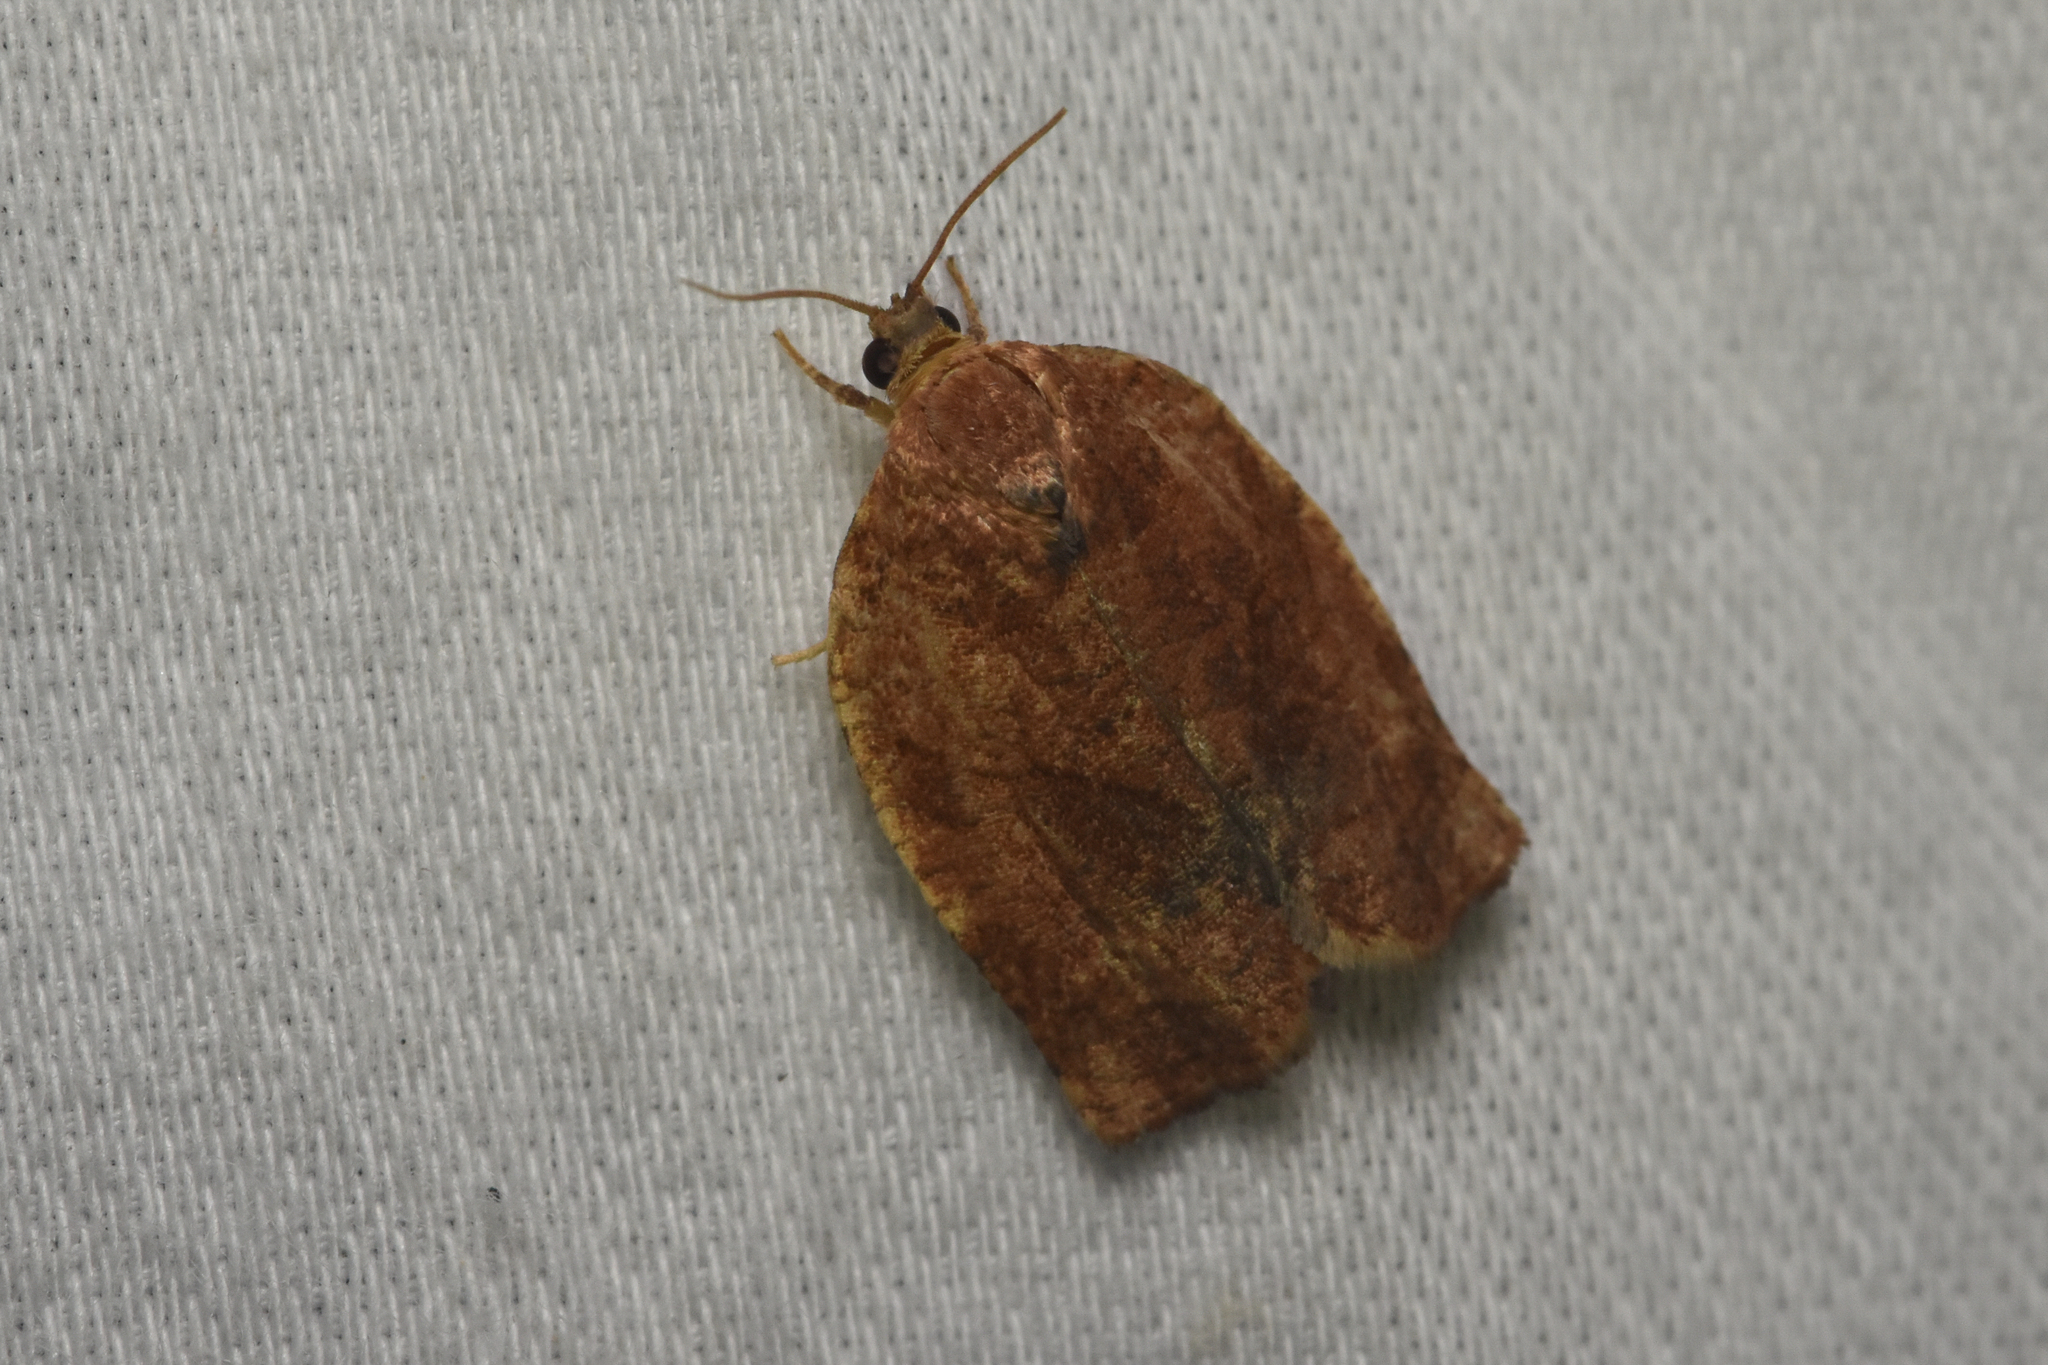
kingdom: Animalia
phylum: Arthropoda
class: Insecta
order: Lepidoptera
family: Tortricidae
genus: Choristoneura
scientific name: Choristoneura rosaceana
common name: Oblique-banded leafroller moth
